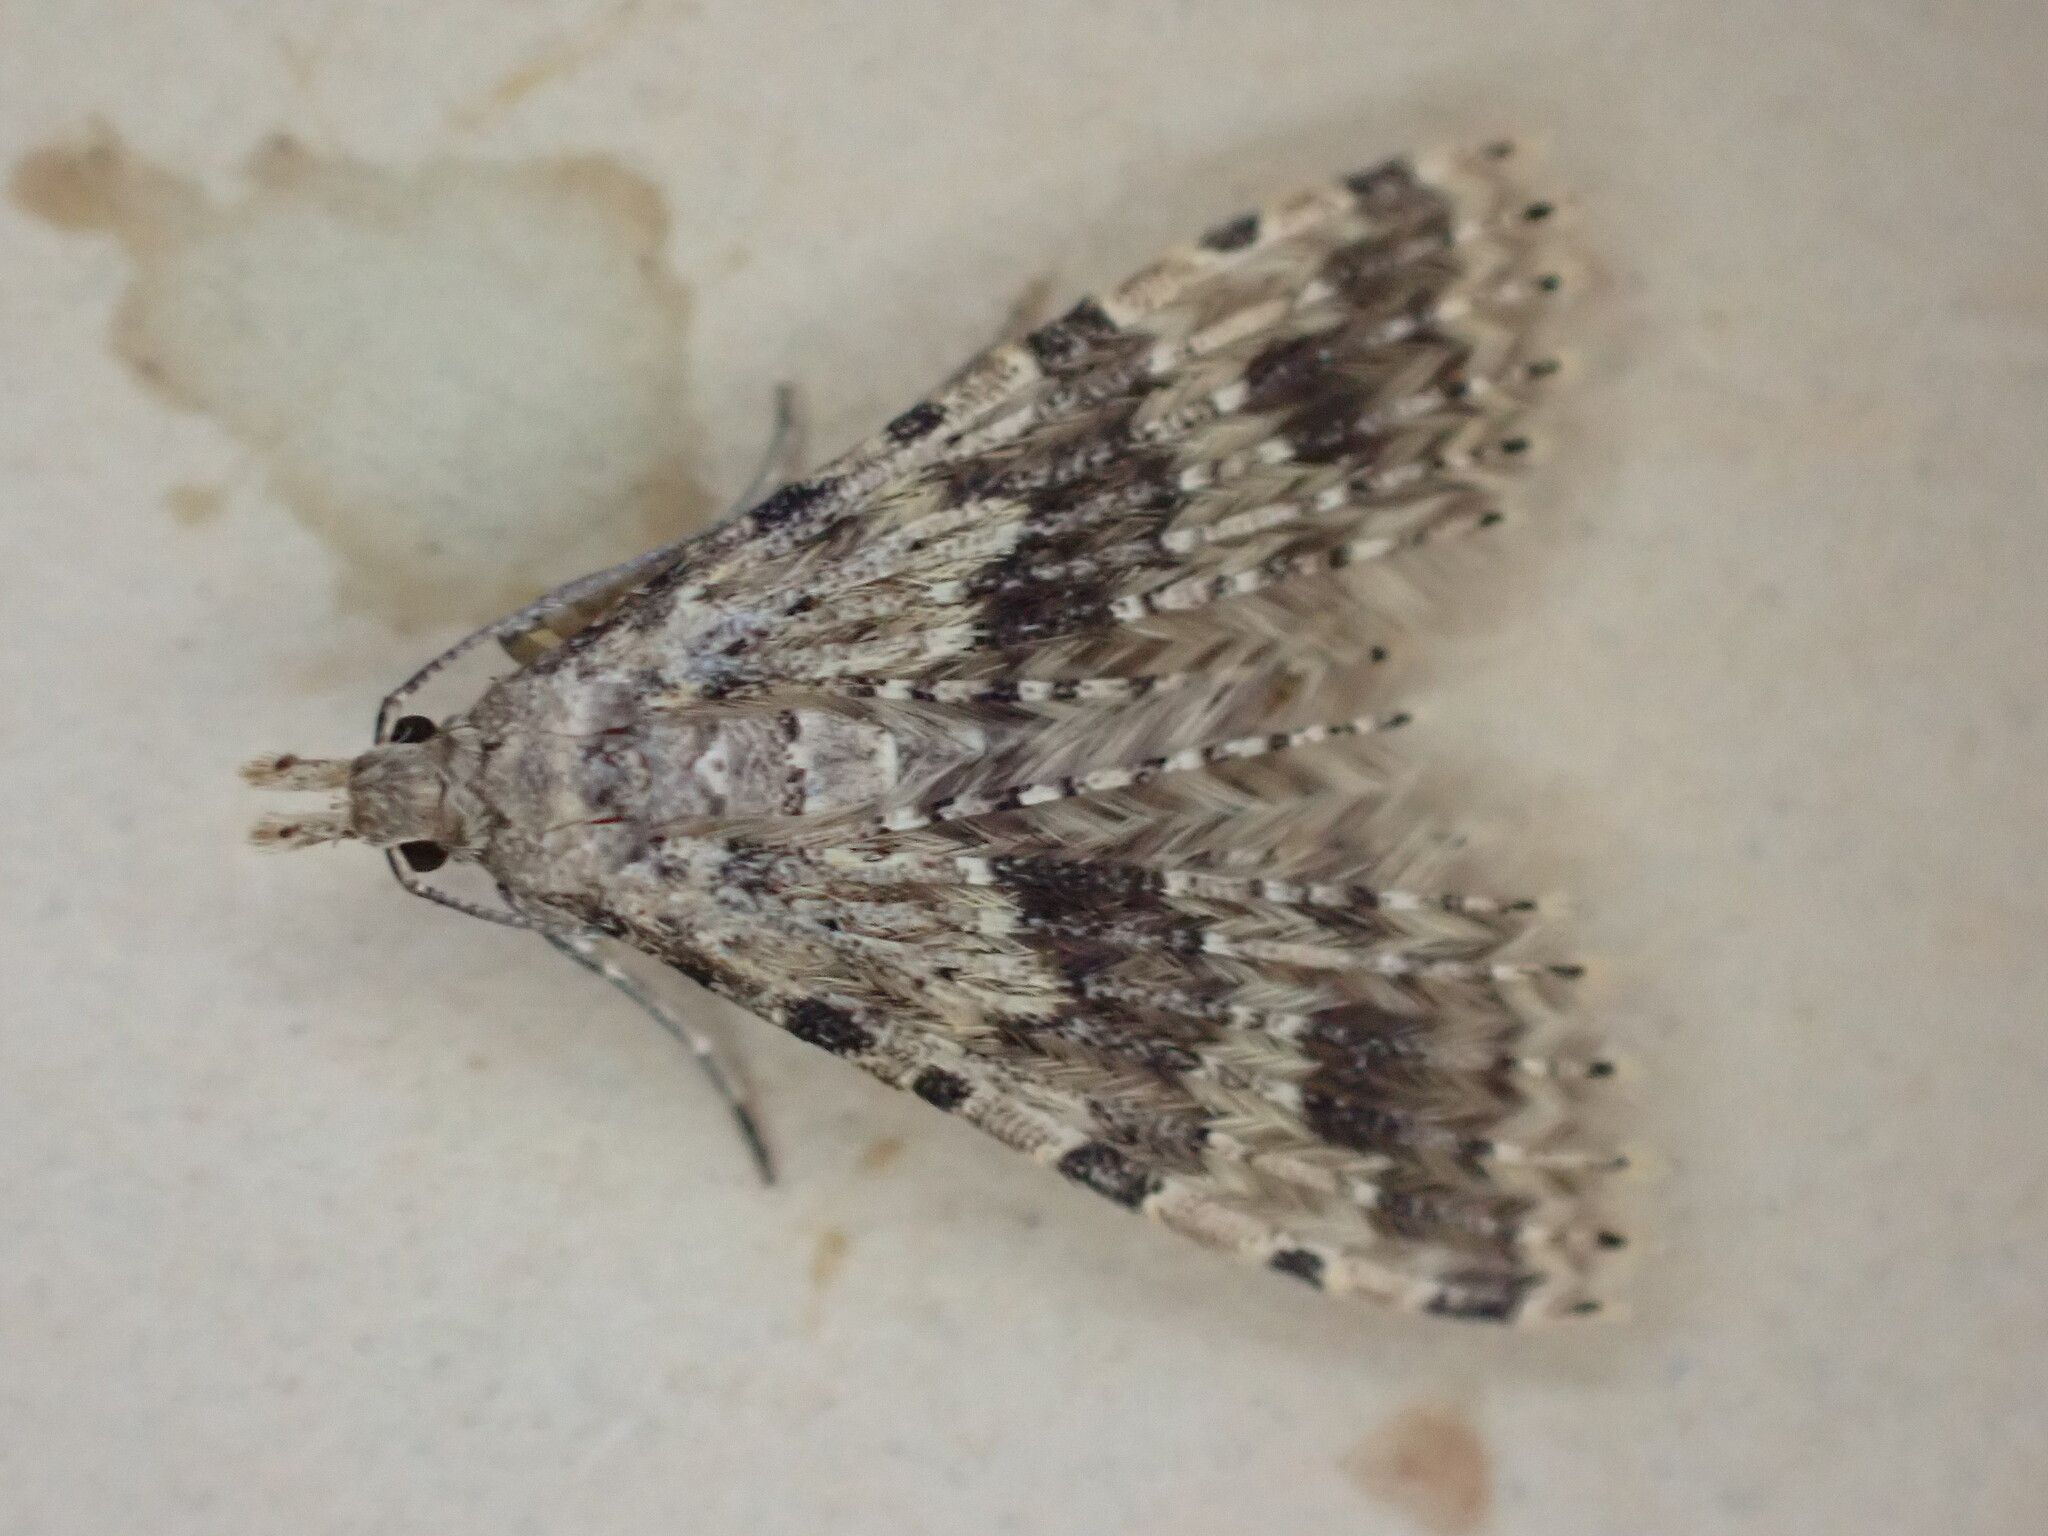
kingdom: Animalia
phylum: Arthropoda
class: Insecta
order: Lepidoptera
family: Alucitidae
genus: Alucita
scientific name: Alucita hexadactyla
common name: Twenty-plume moth
